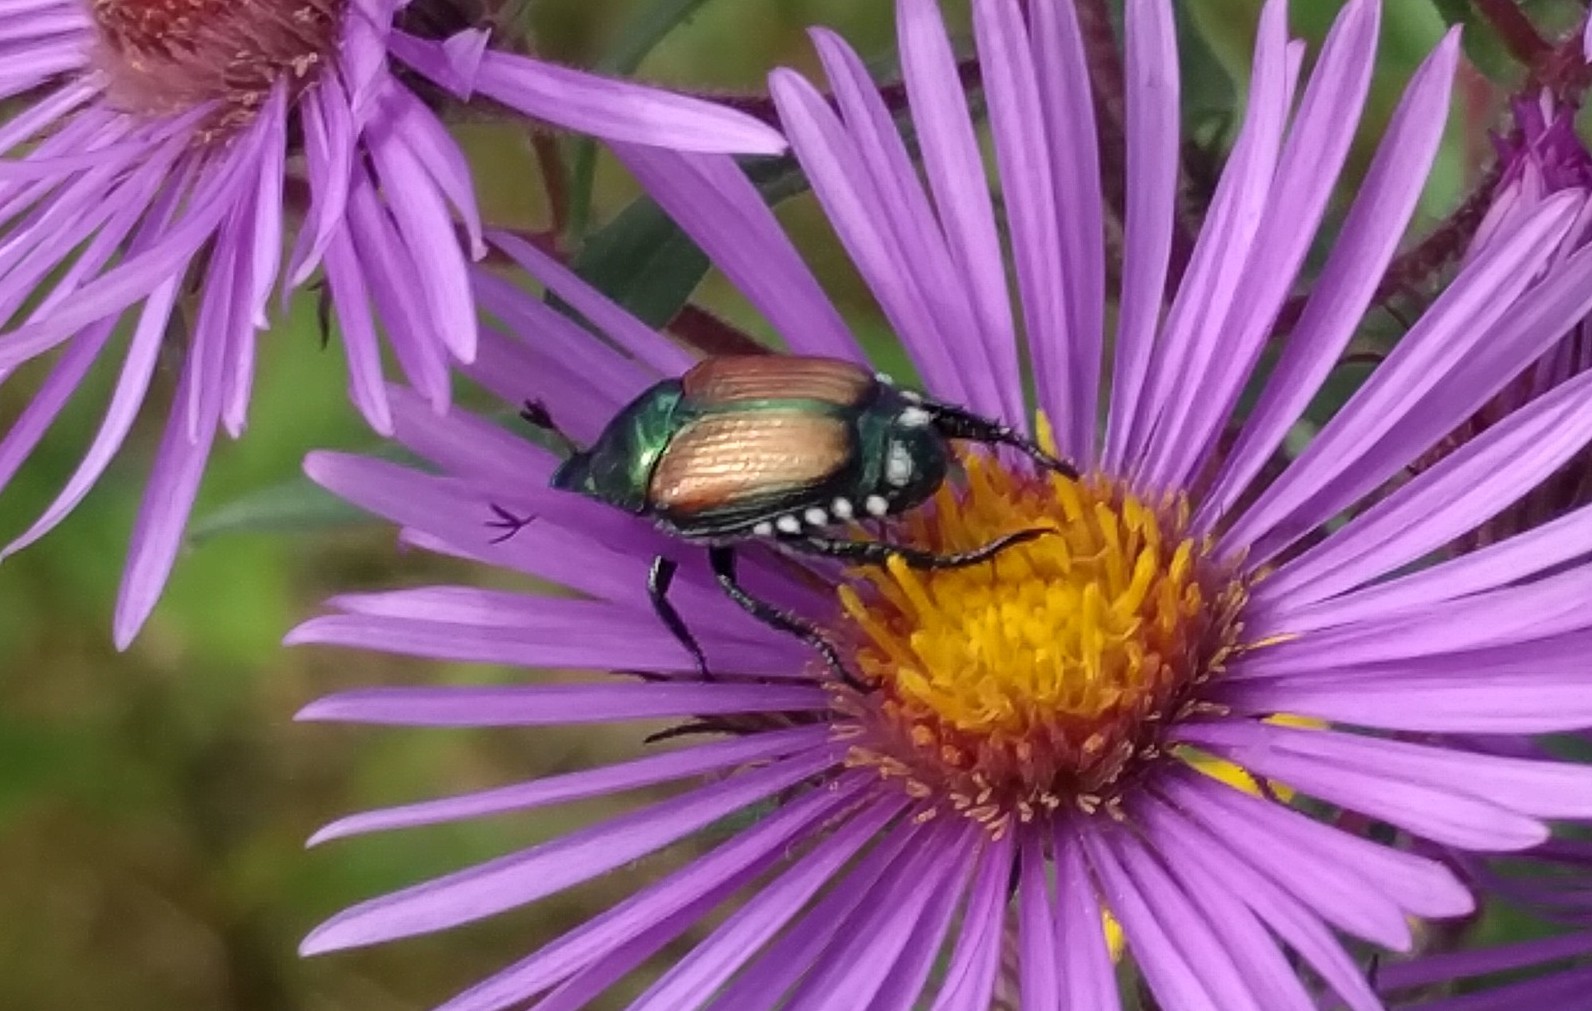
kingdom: Animalia
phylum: Arthropoda
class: Insecta
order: Coleoptera
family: Scarabaeidae
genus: Popillia
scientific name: Popillia japonica
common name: Japanese beetle
